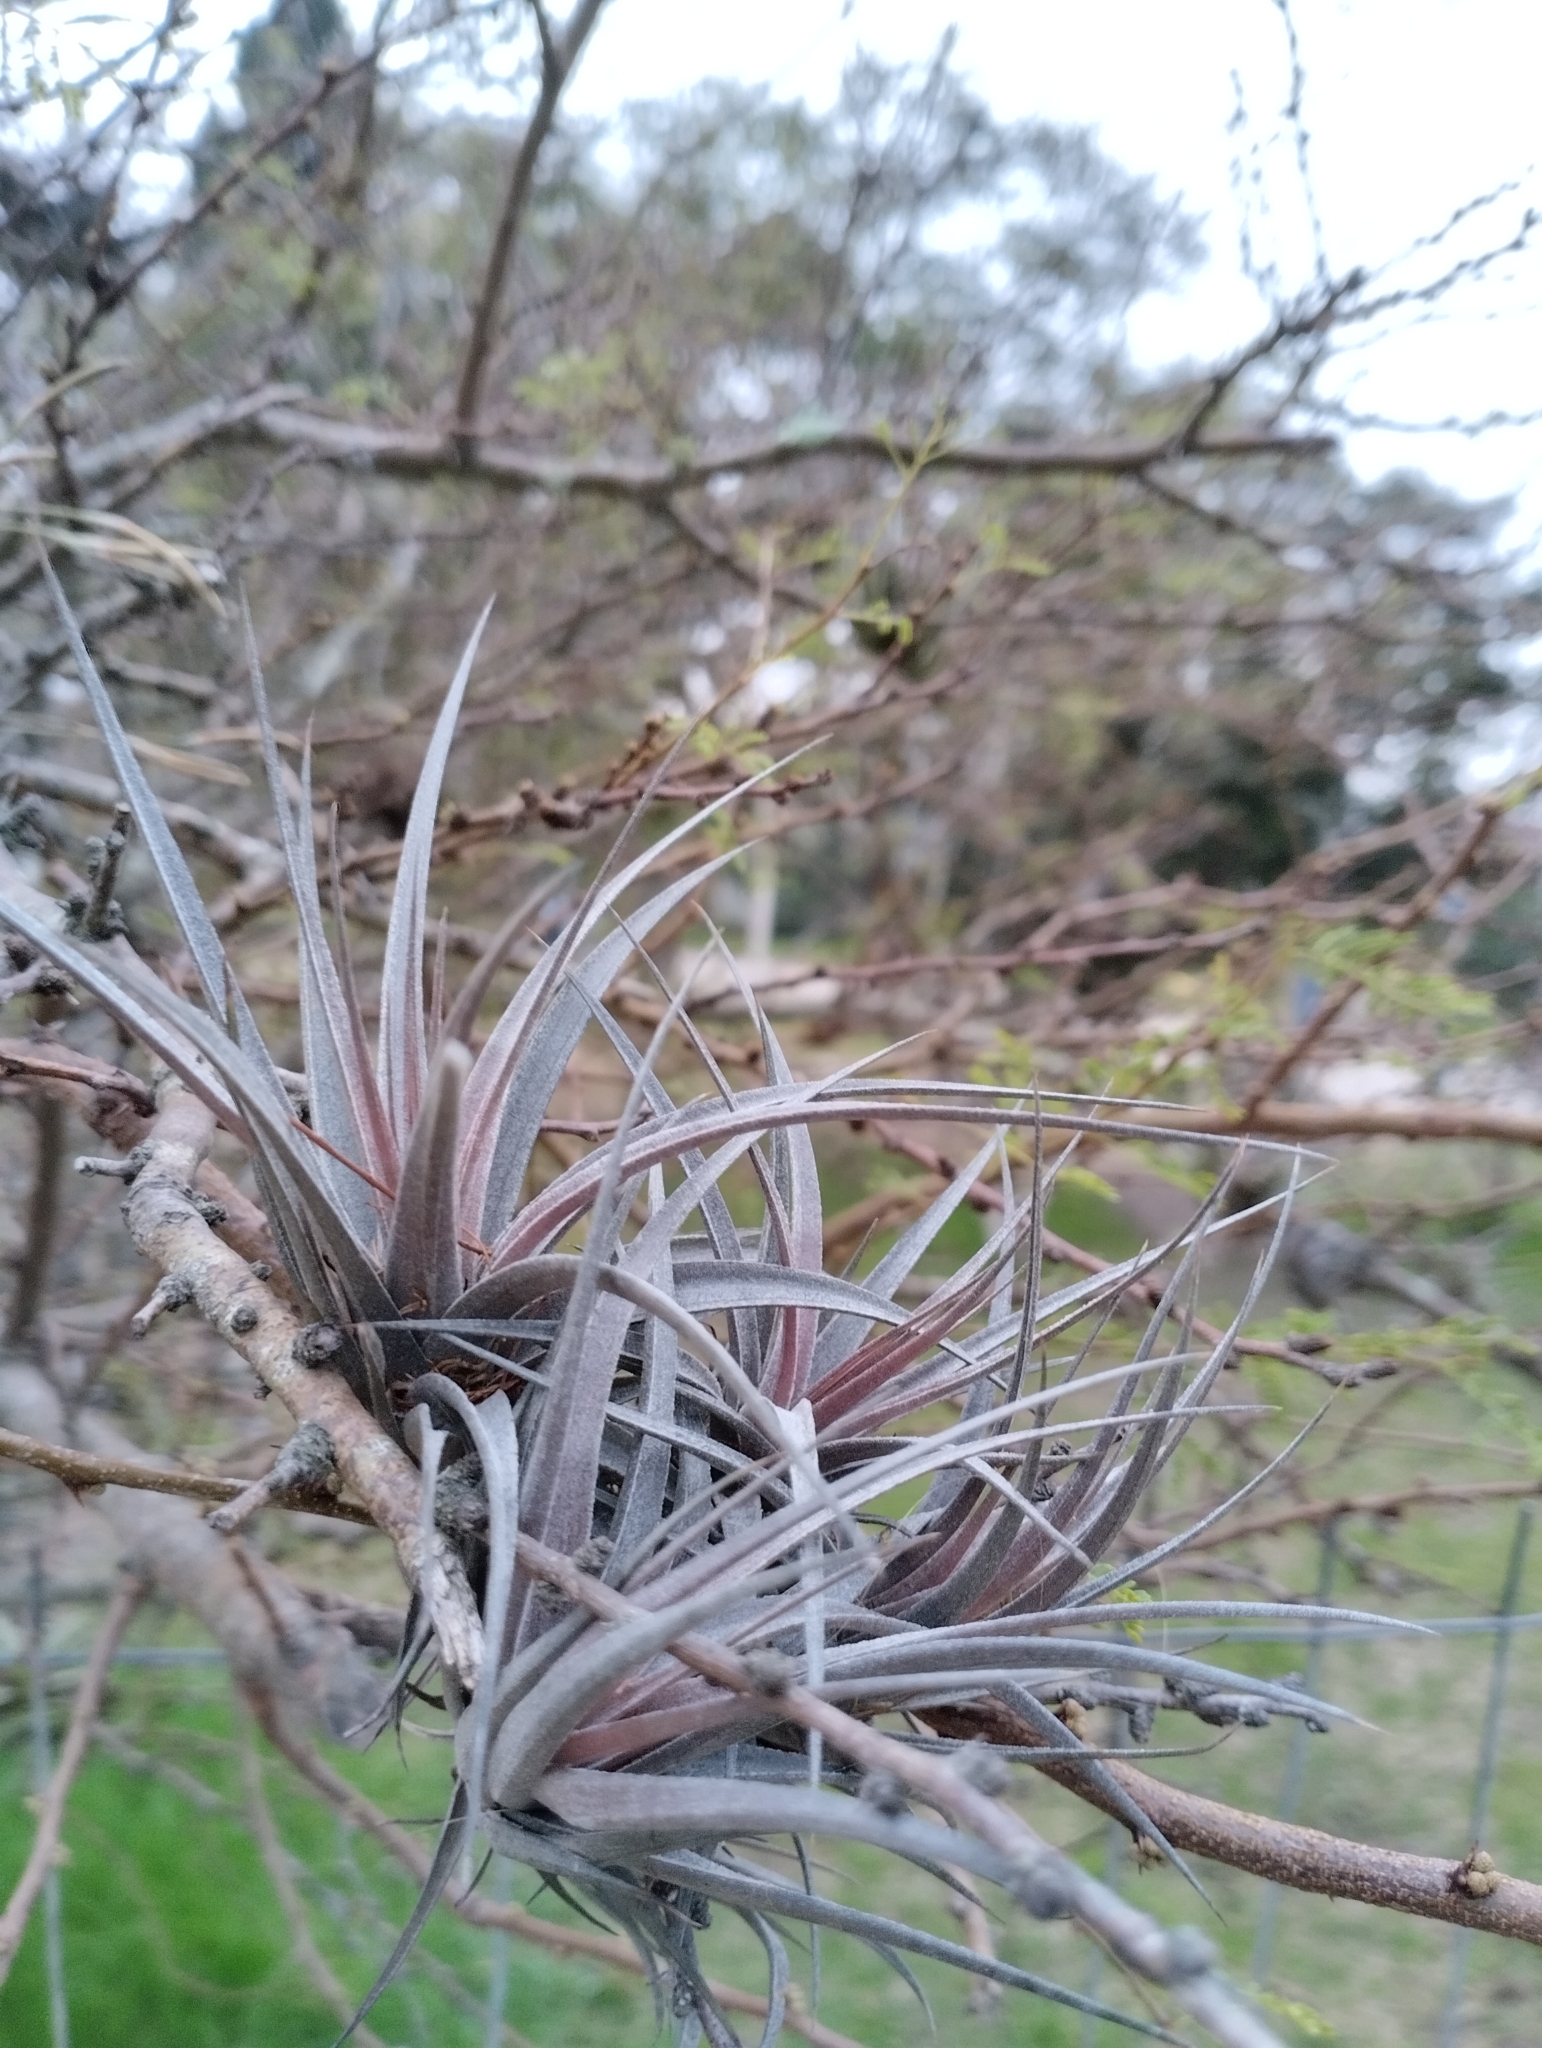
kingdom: Plantae
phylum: Tracheophyta
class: Liliopsida
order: Poales
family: Bromeliaceae
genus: Tillandsia
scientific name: Tillandsia aeranthos
